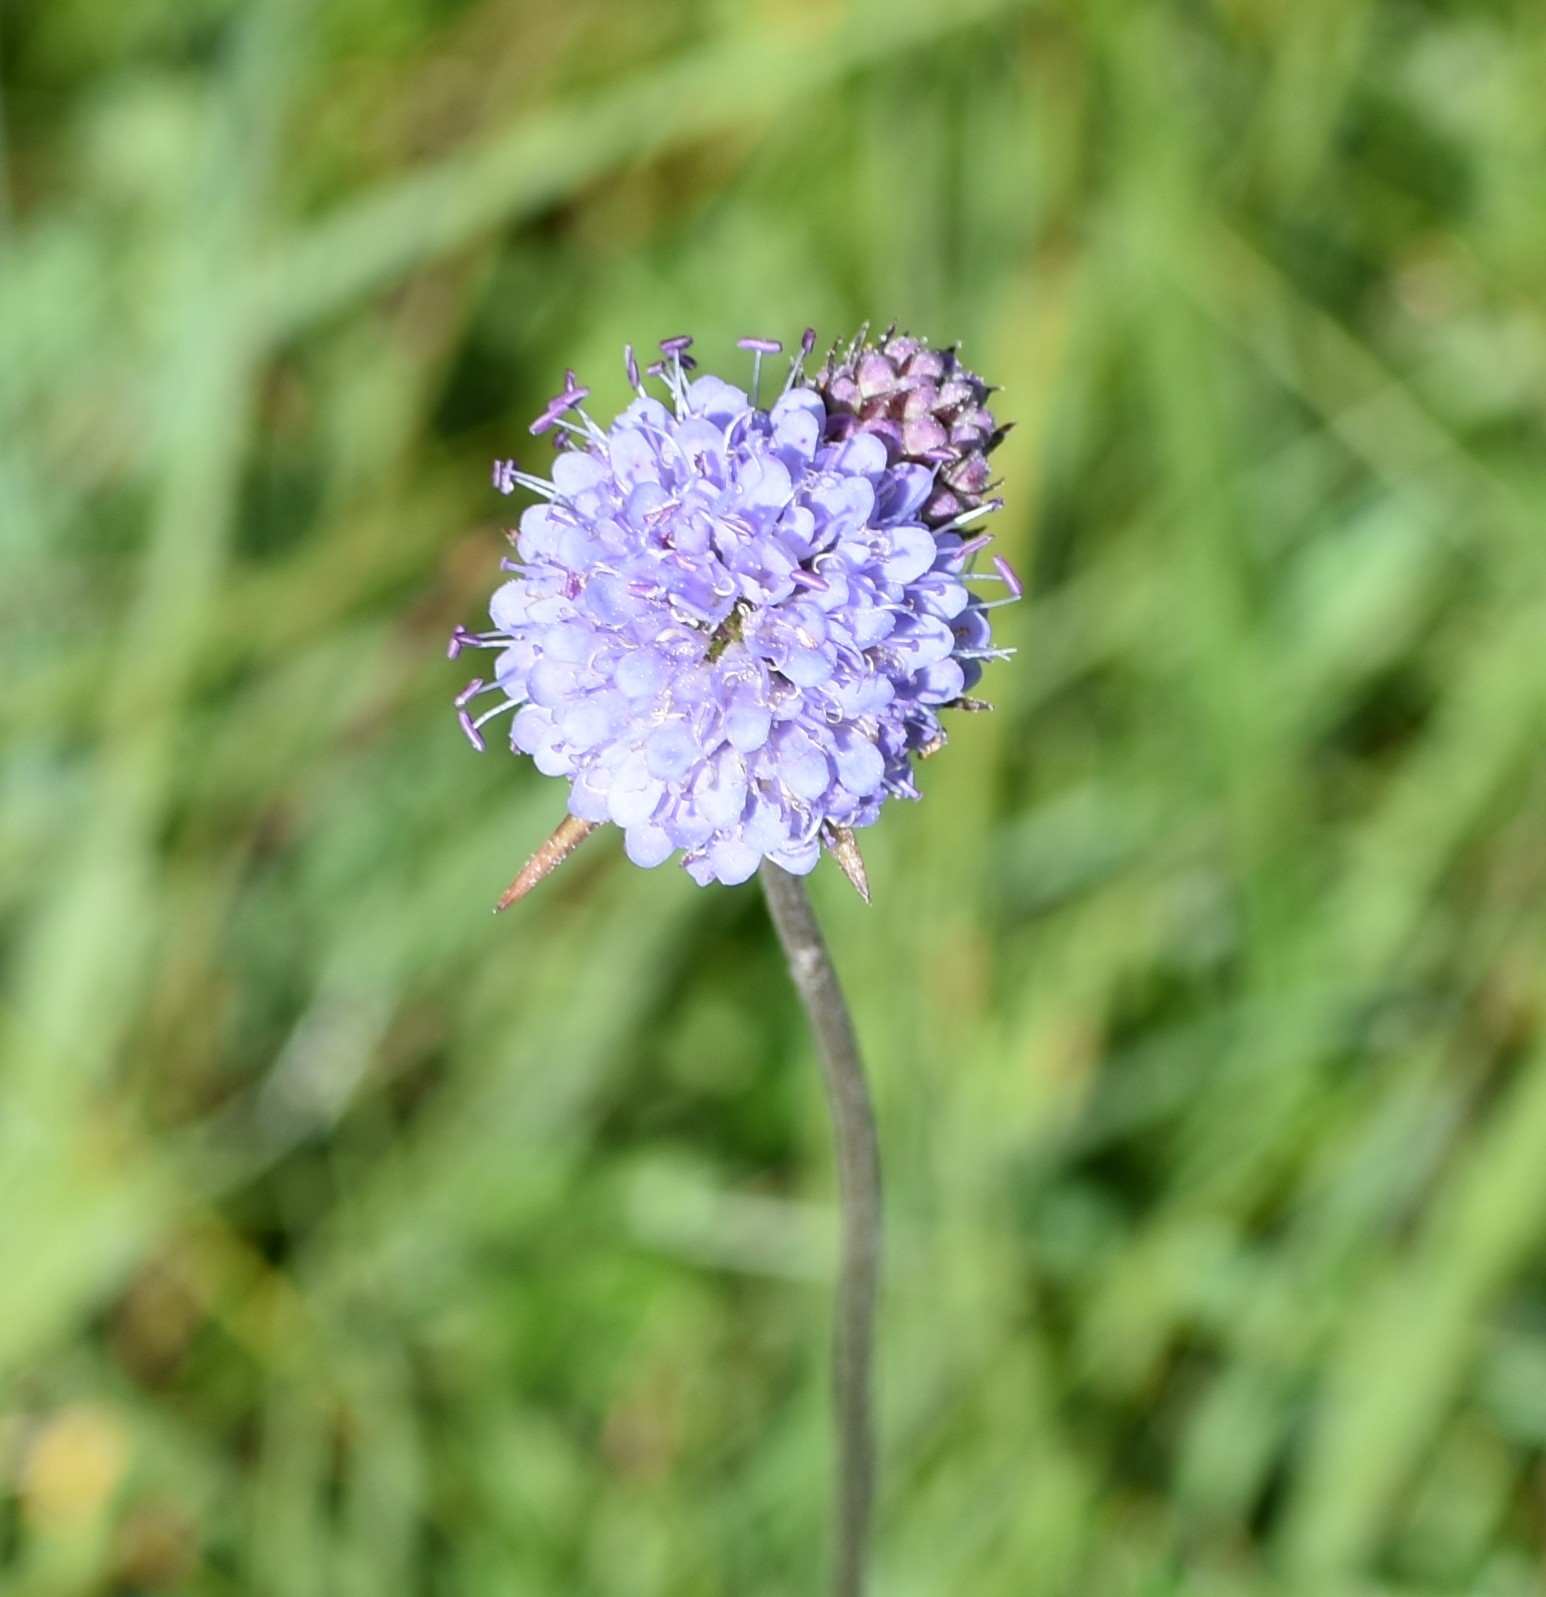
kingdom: Plantae
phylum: Tracheophyta
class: Magnoliopsida
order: Dipsacales
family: Caprifoliaceae
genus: Succisa
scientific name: Succisa pratensis
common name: Devil's-bit
